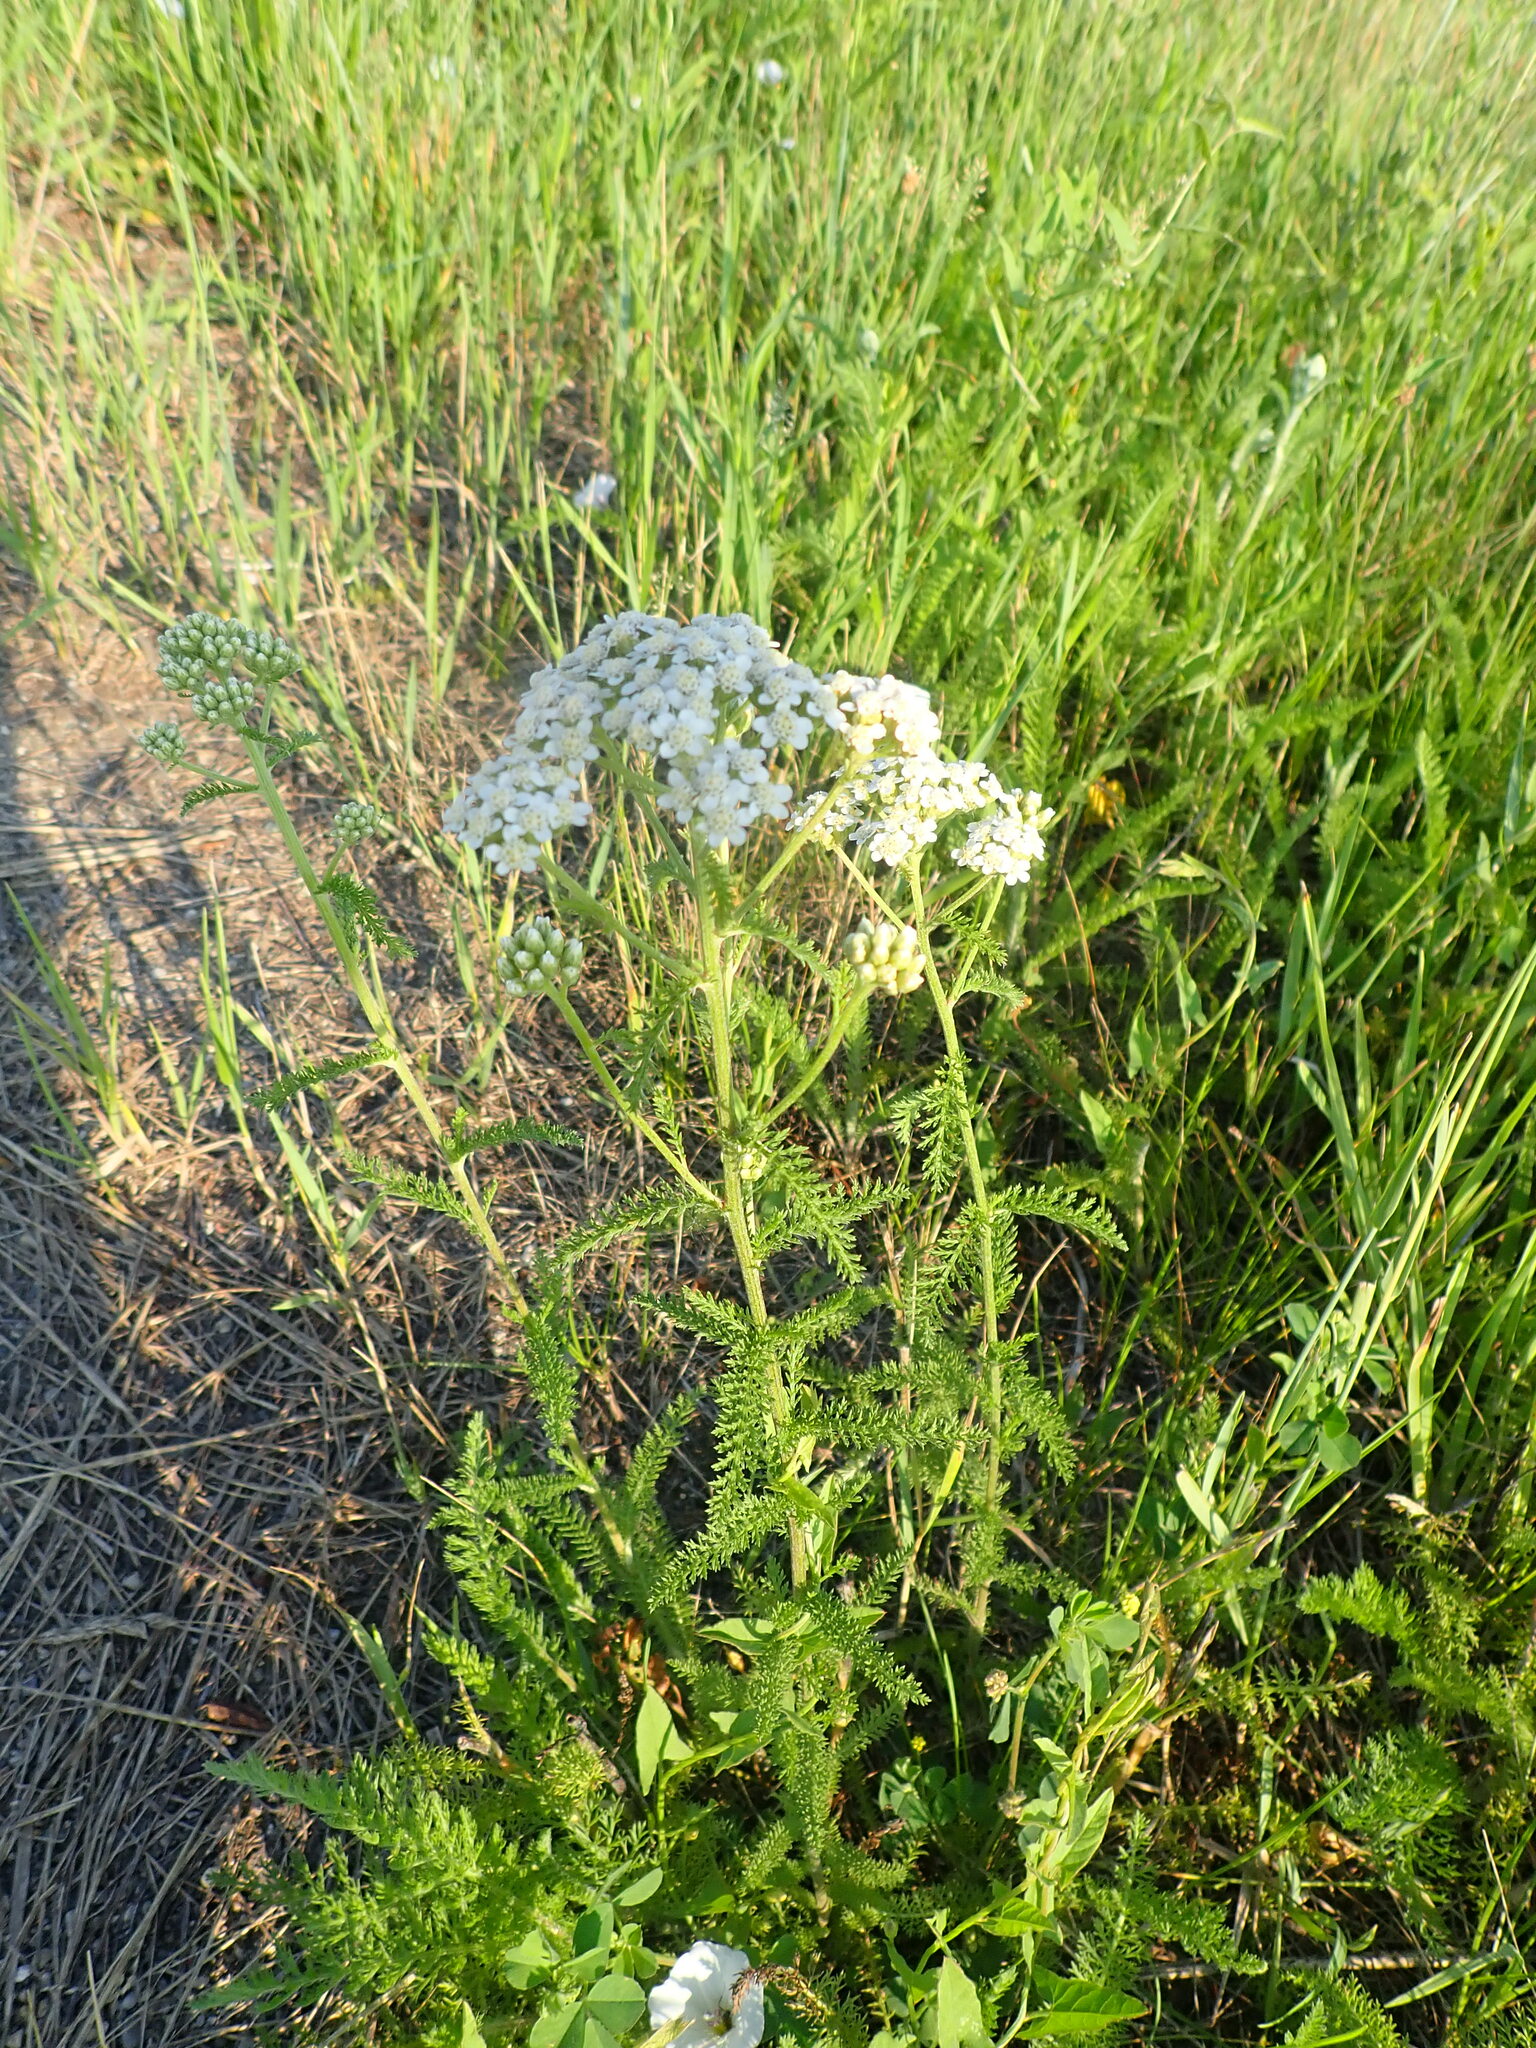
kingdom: Plantae
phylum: Tracheophyta
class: Magnoliopsida
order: Asterales
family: Asteraceae
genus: Achillea
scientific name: Achillea millefolium
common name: Yarrow
